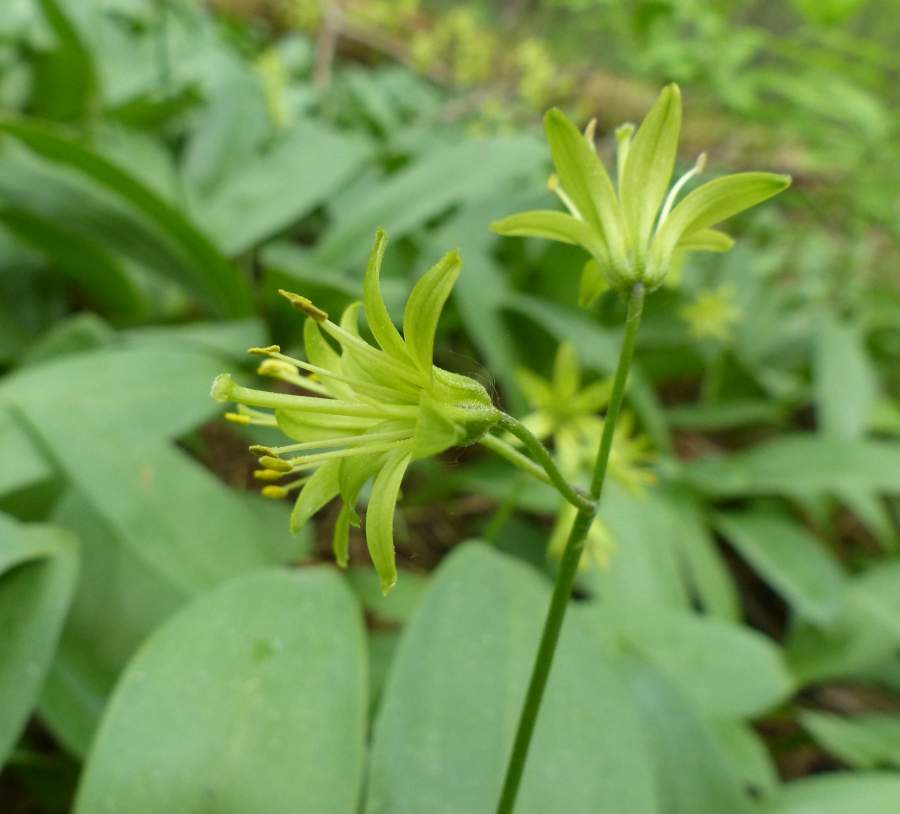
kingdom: Plantae
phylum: Tracheophyta
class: Liliopsida
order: Liliales
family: Liliaceae
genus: Clintonia
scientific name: Clintonia borealis
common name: Yellow clintonia
